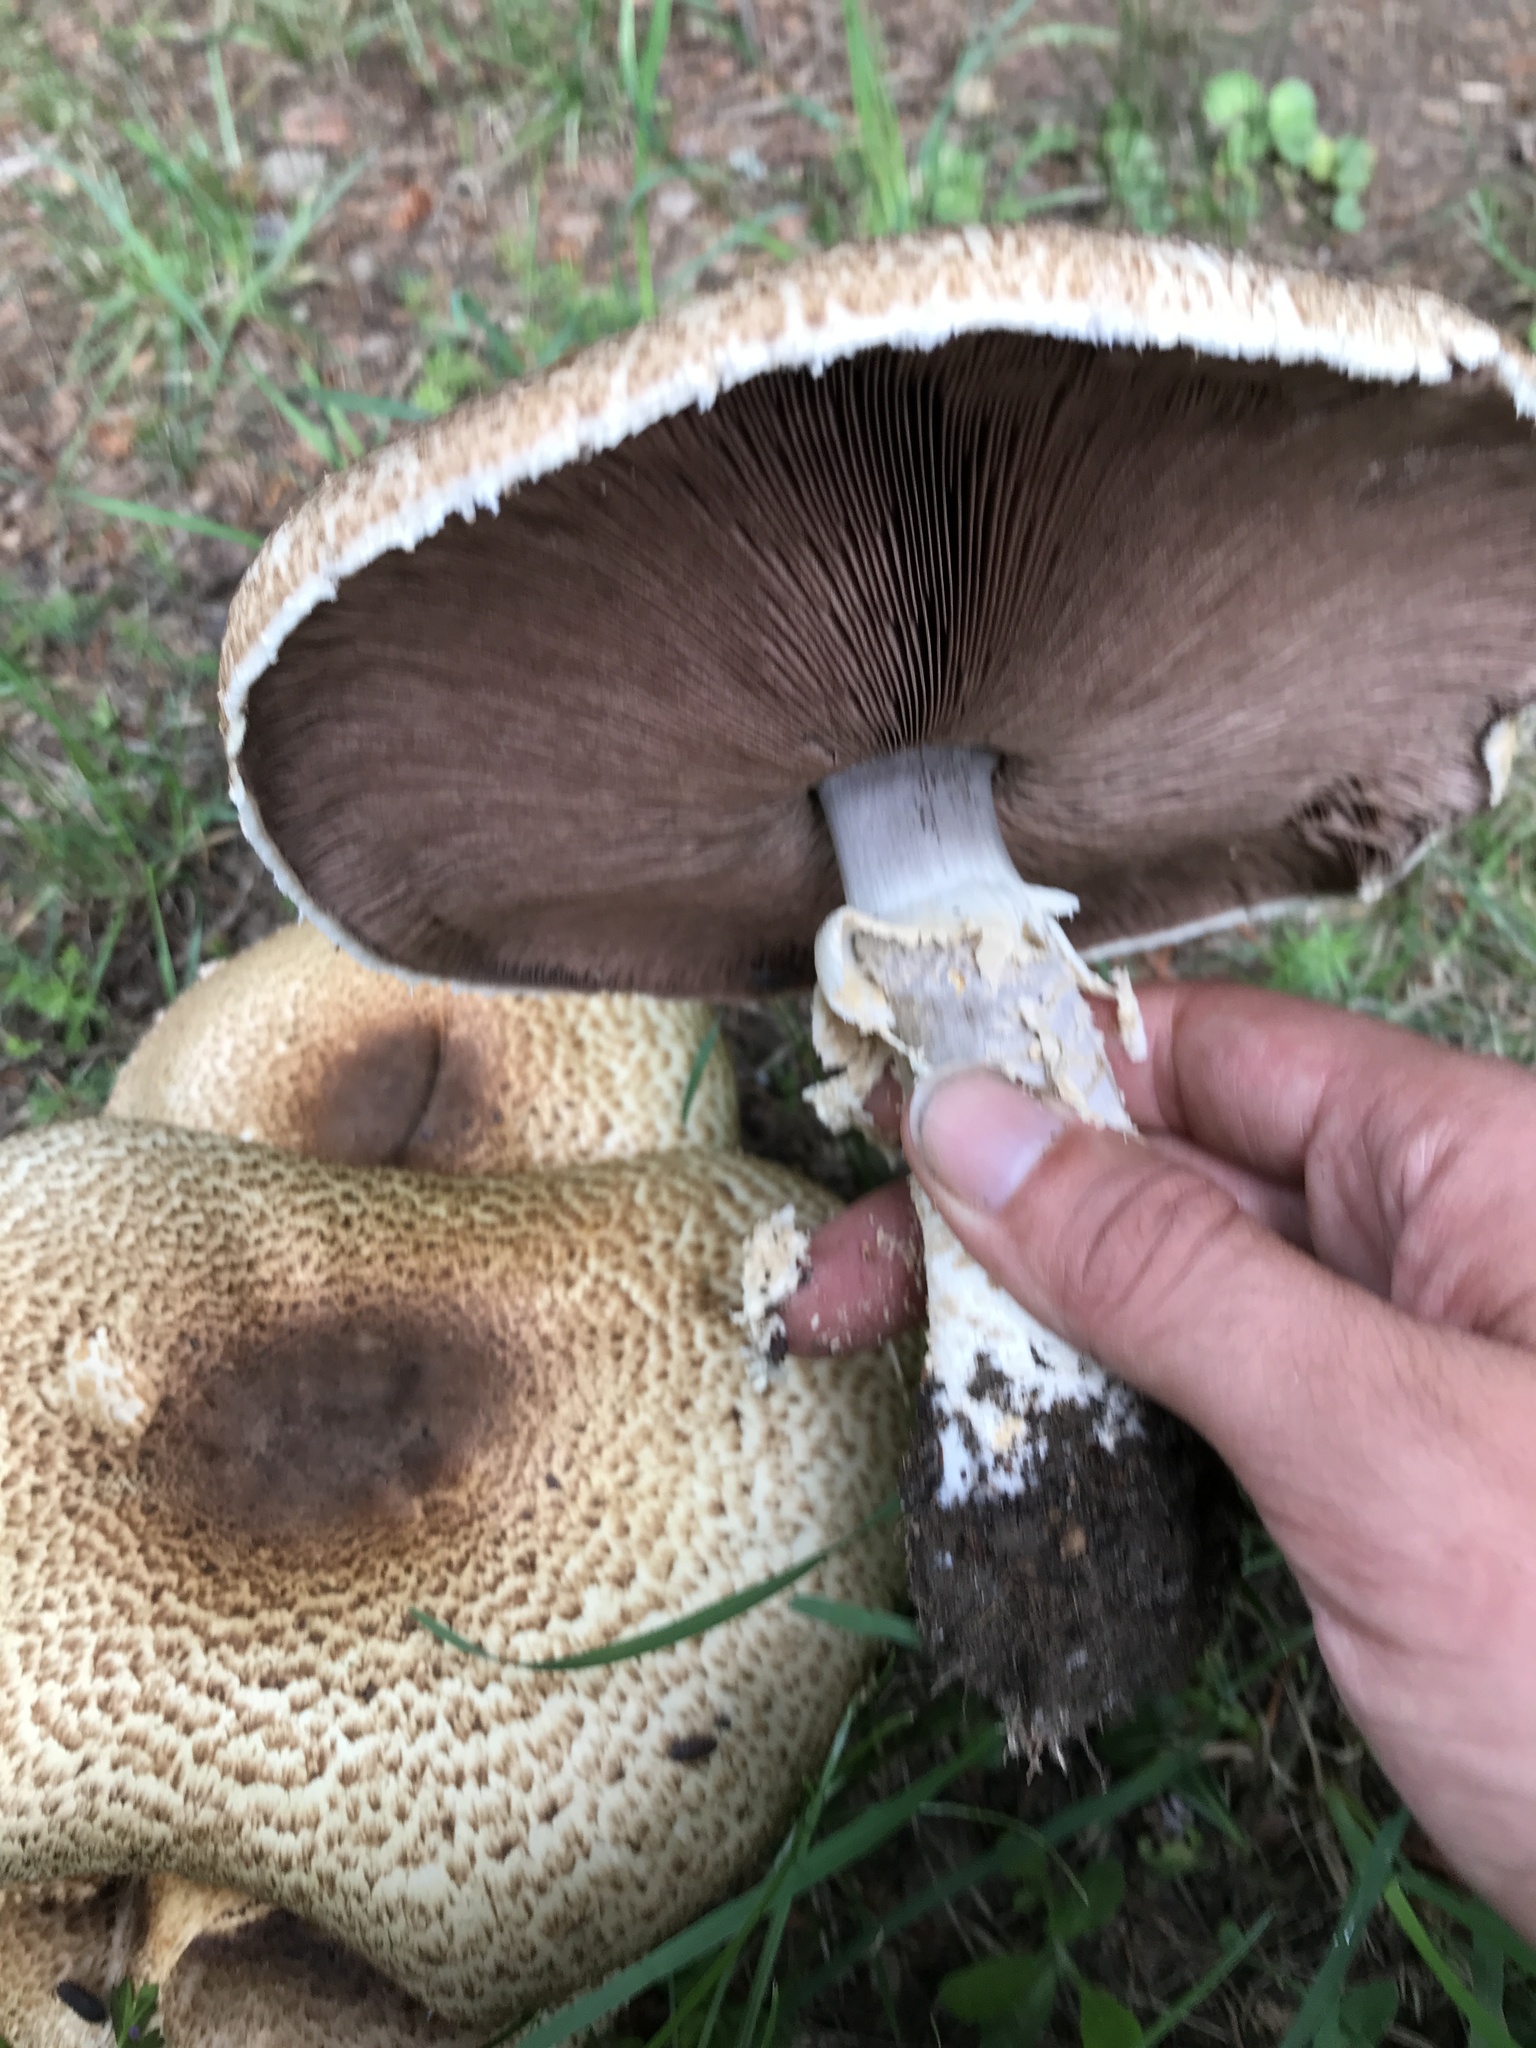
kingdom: Fungi
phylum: Basidiomycota
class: Agaricomycetes
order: Agaricales
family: Agaricaceae
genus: Agaricus
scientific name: Agaricus augustus
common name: Prince
